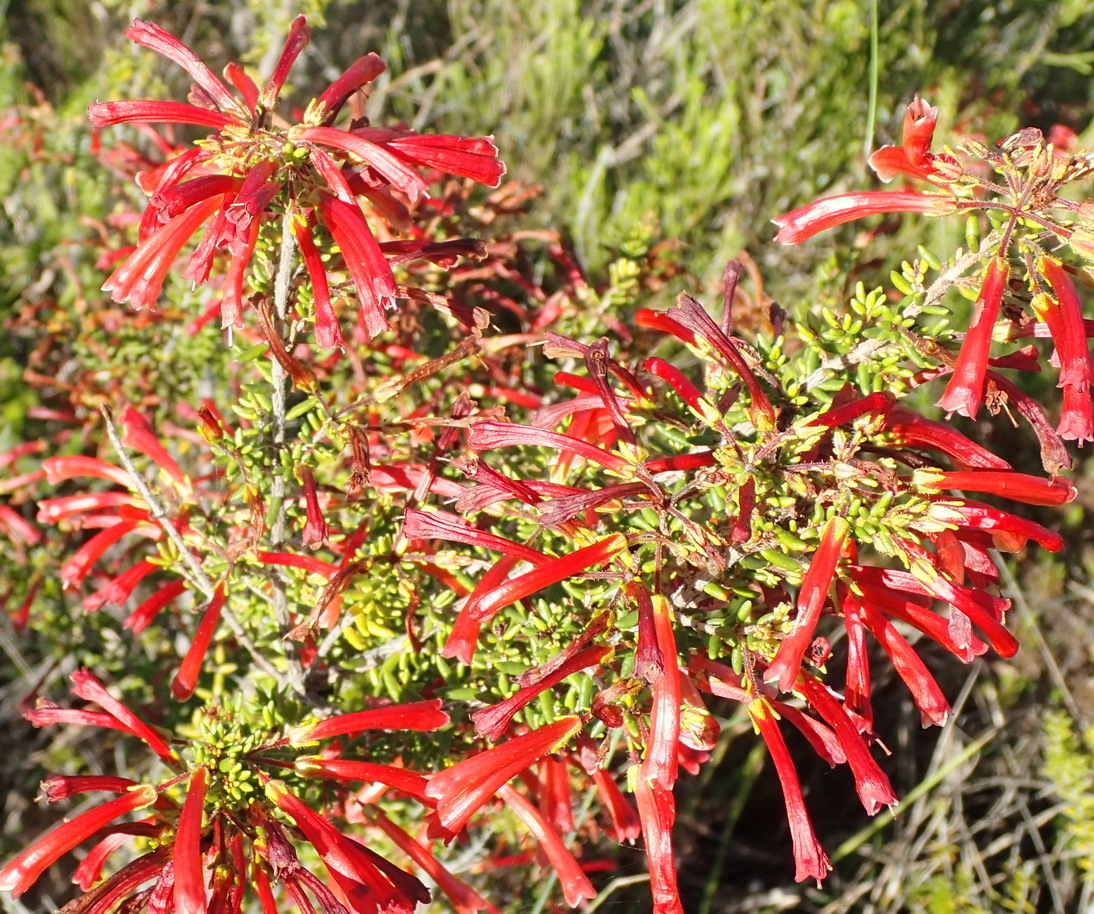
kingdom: Plantae
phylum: Tracheophyta
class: Magnoliopsida
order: Ericales
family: Ericaceae
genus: Erica
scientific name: Erica glandulosa
